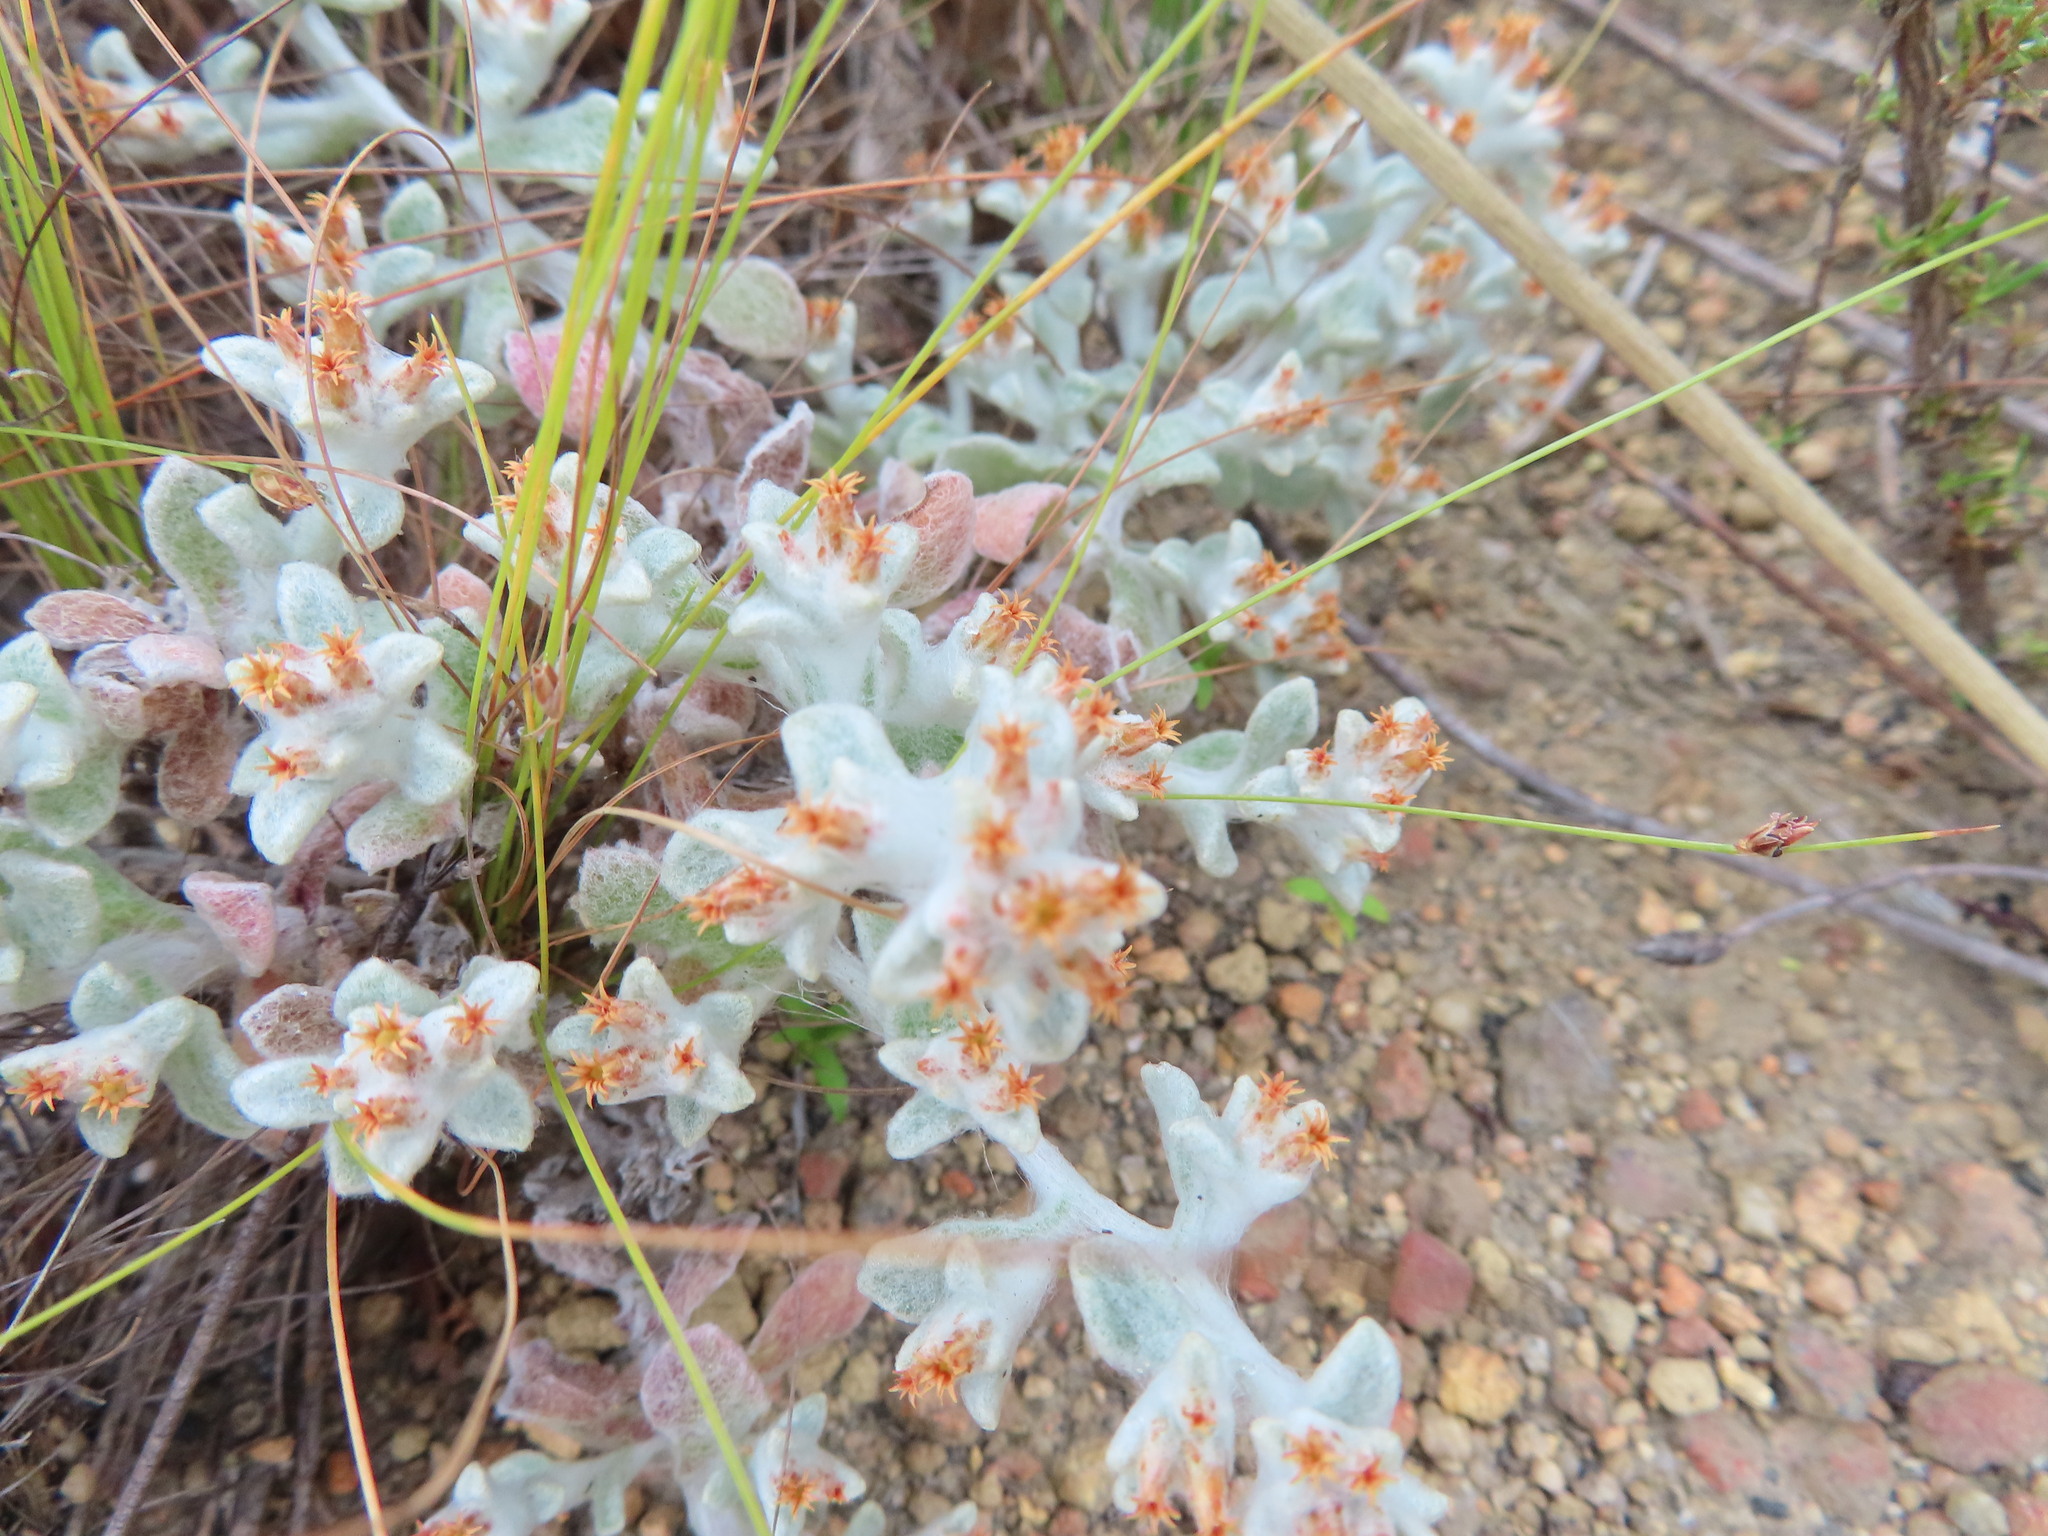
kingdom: Plantae
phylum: Tracheophyta
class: Magnoliopsida
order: Asterales
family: Asteraceae
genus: Helichrysum
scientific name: Helichrysum tinctum
